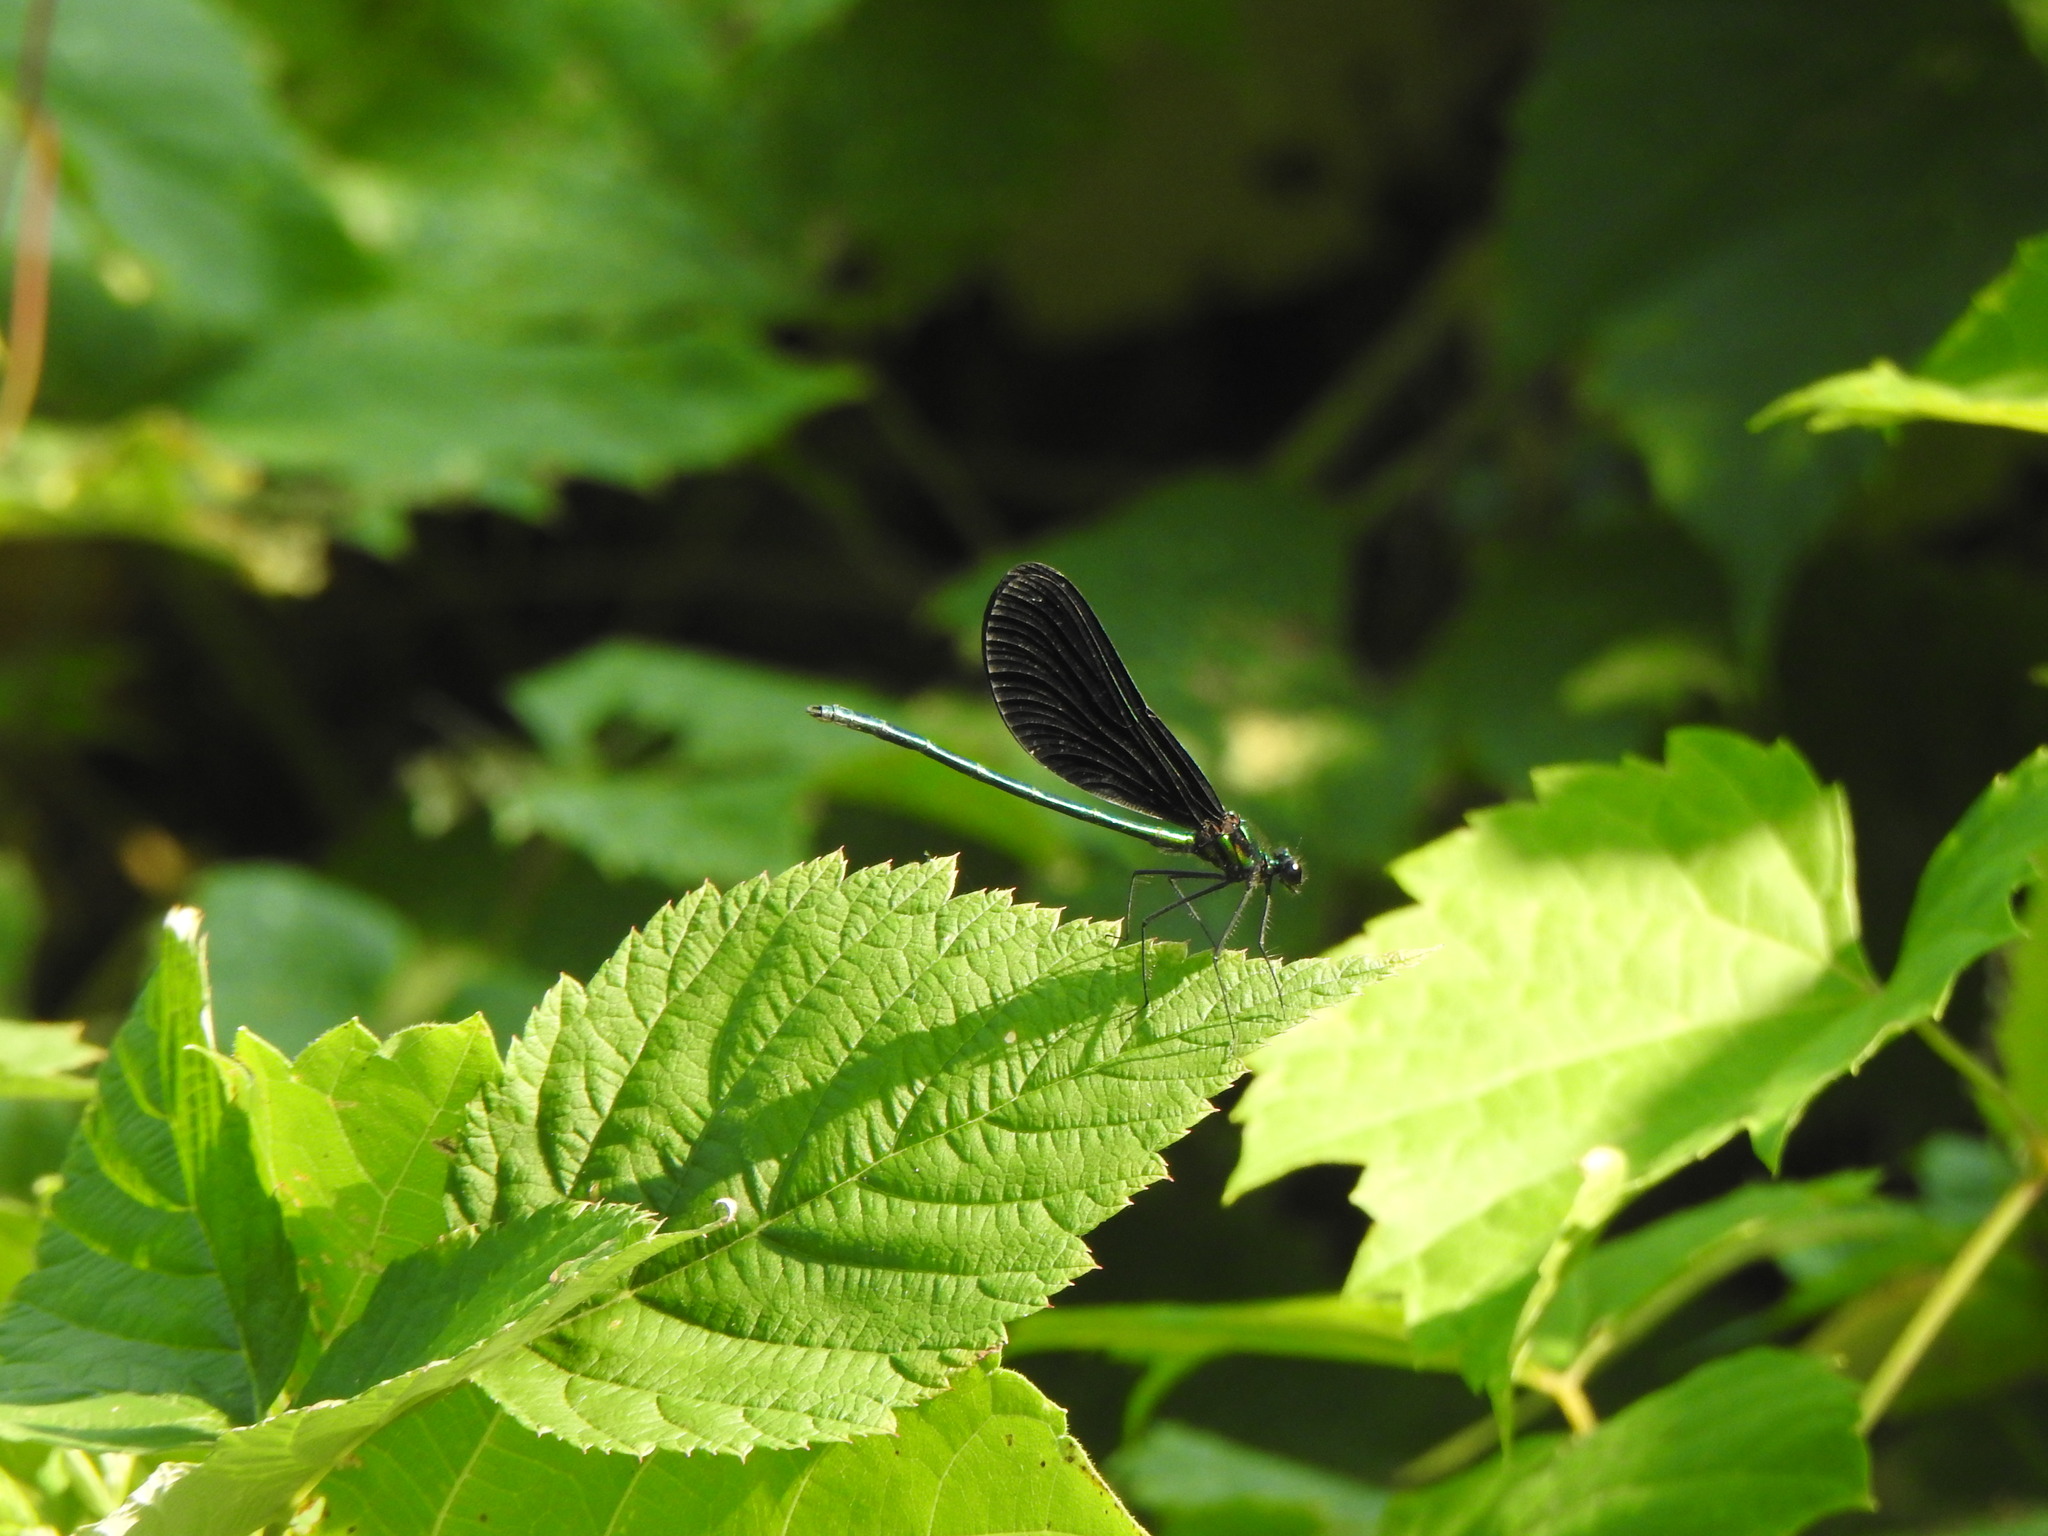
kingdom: Animalia
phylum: Arthropoda
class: Insecta
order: Odonata
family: Calopterygidae
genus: Calopteryx
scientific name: Calopteryx maculata
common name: Ebony jewelwing
